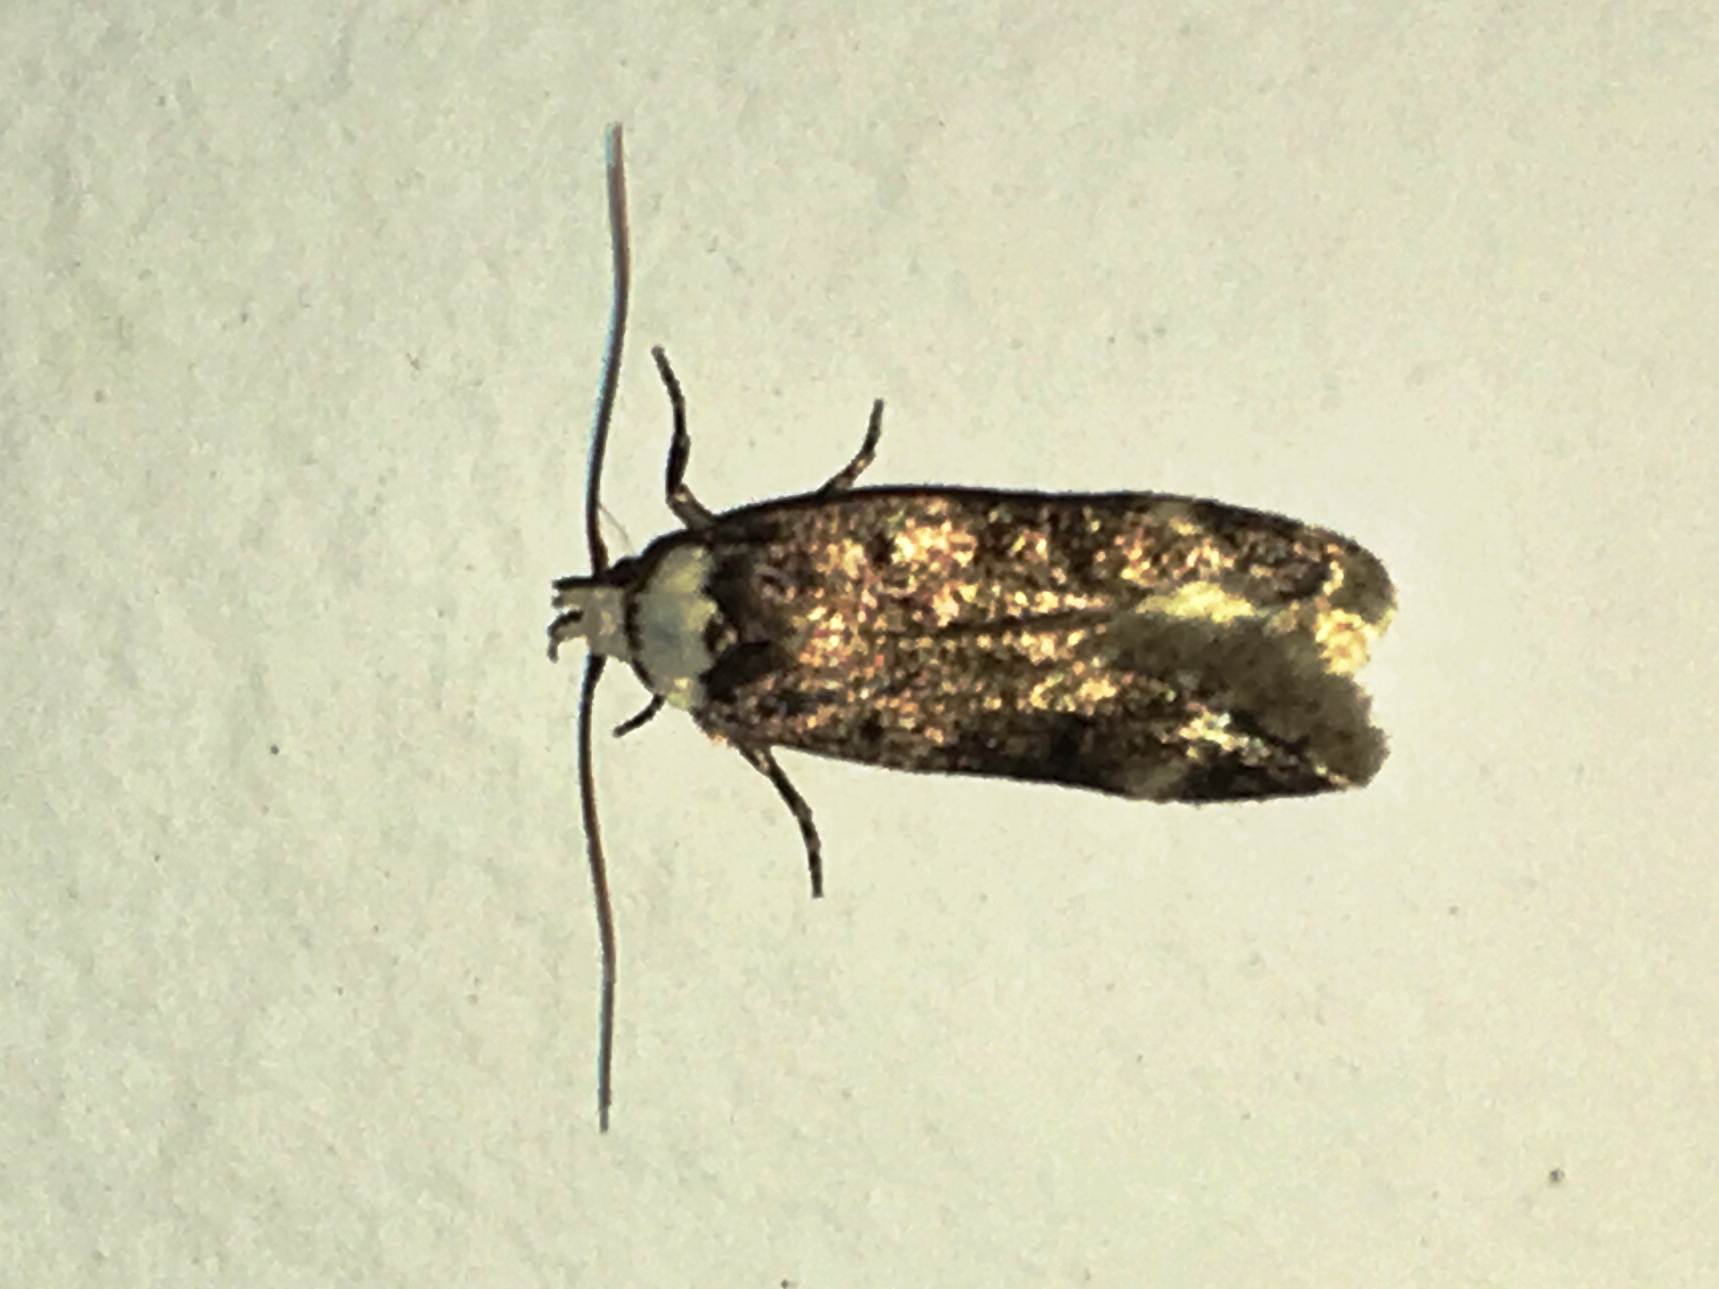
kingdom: Animalia
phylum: Arthropoda
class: Insecta
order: Lepidoptera
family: Oecophoridae
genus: Endrosis
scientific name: Endrosis sarcitrella
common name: White-shouldered house moth
